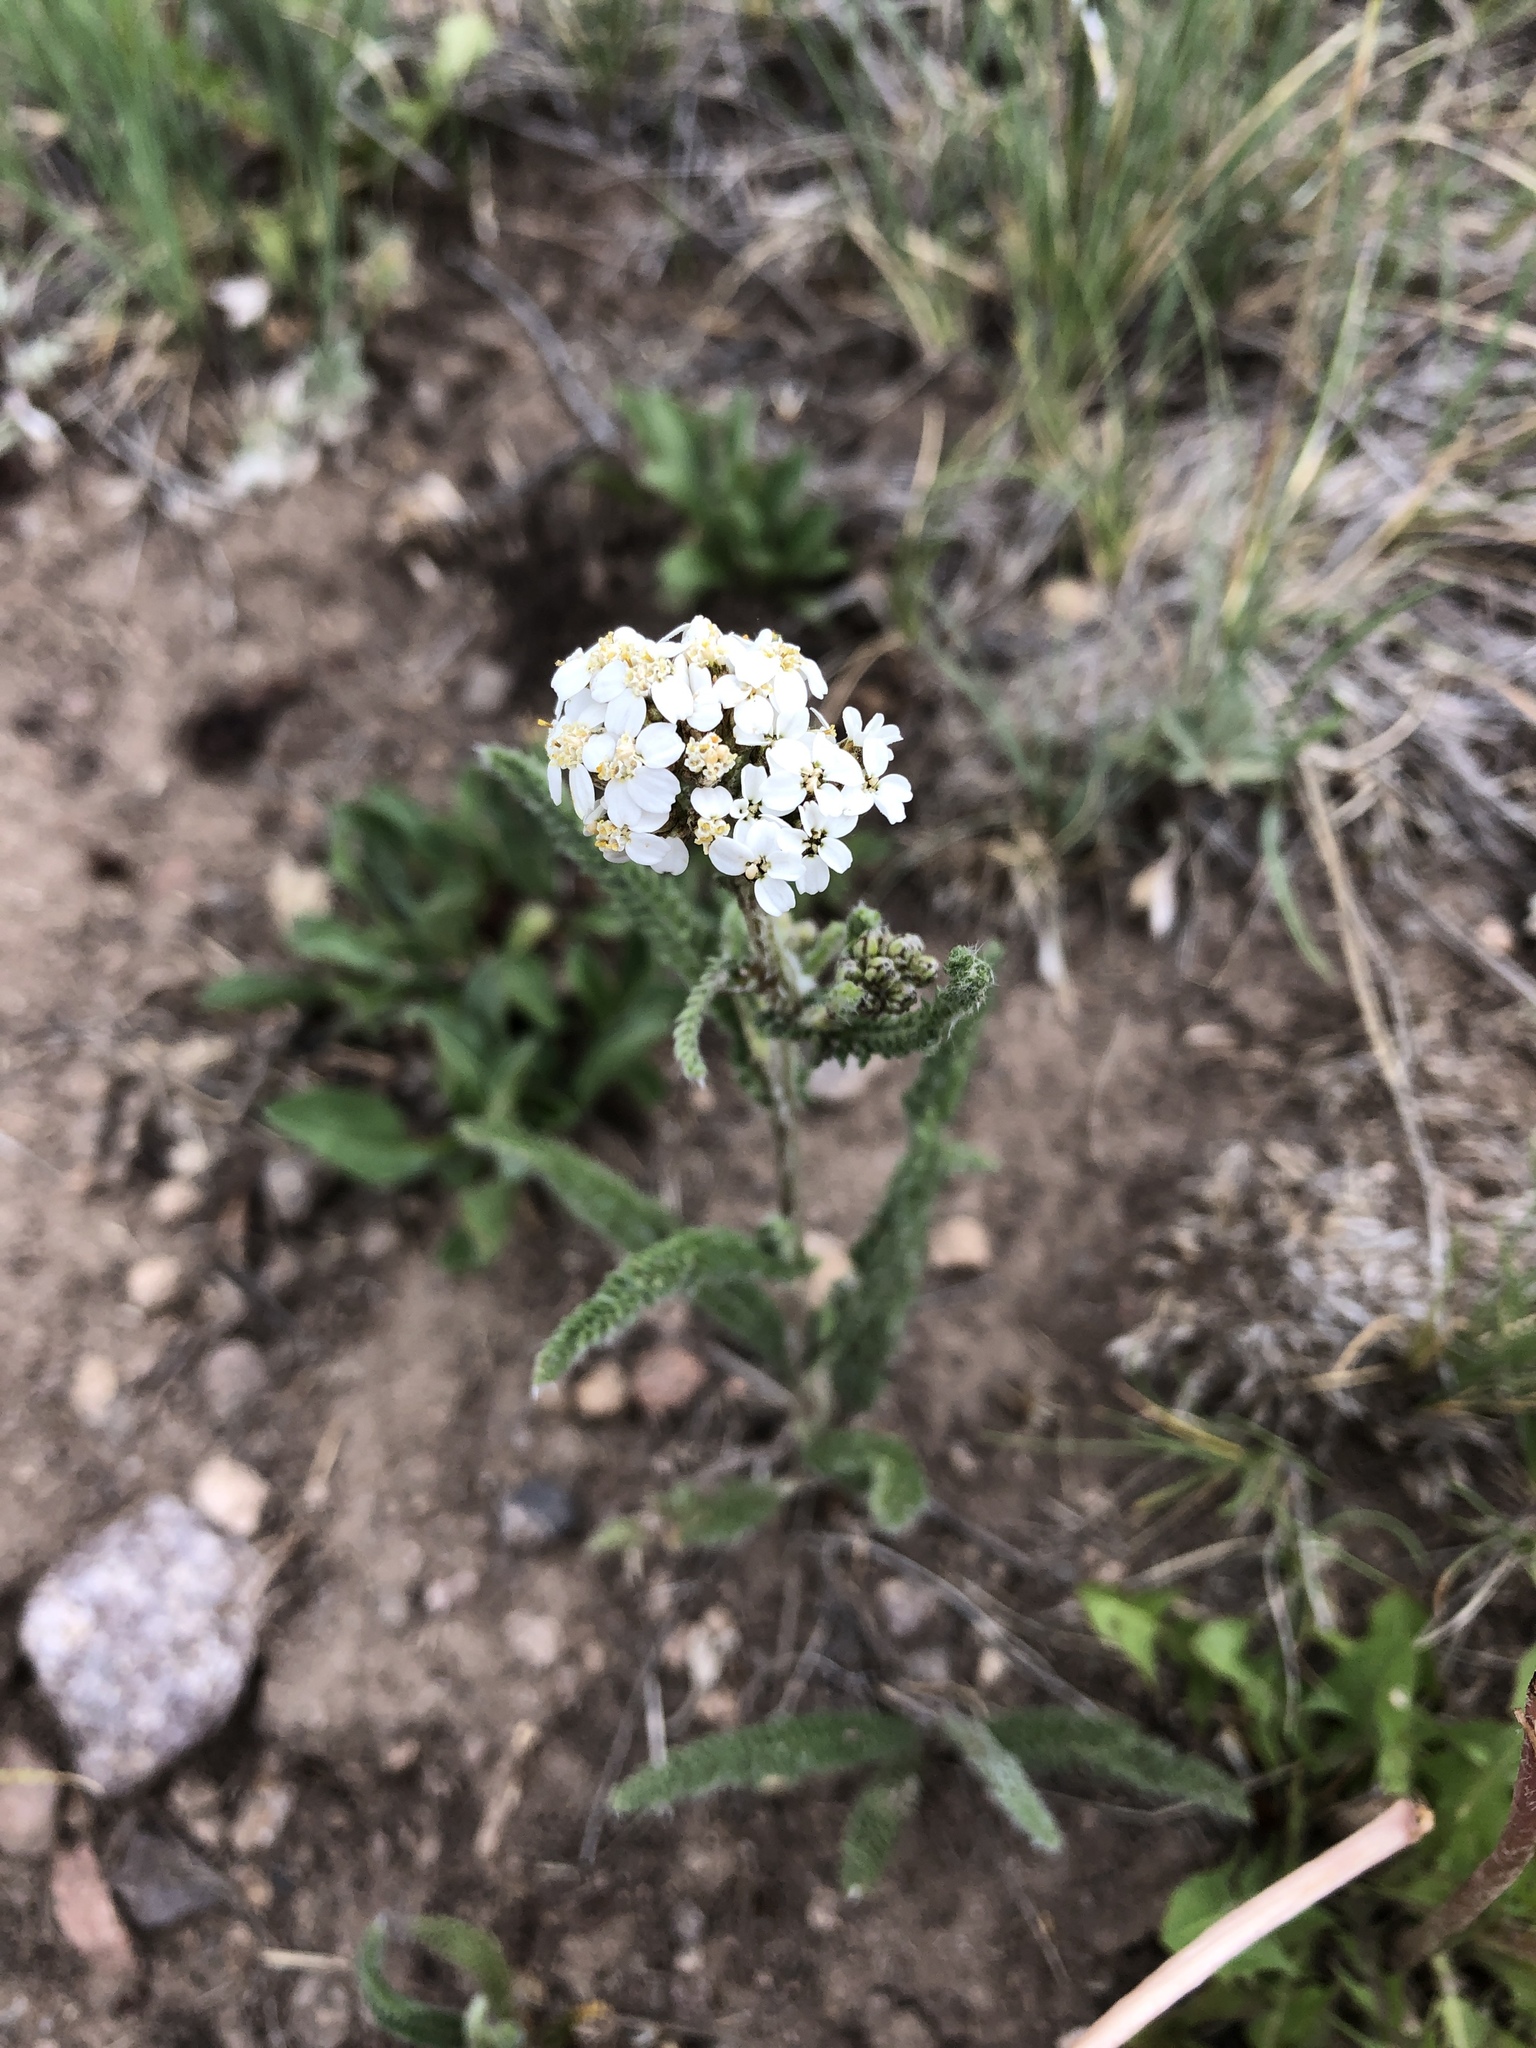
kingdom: Plantae
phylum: Tracheophyta
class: Magnoliopsida
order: Asterales
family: Asteraceae
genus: Achillea
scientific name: Achillea millefolium
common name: Yarrow
